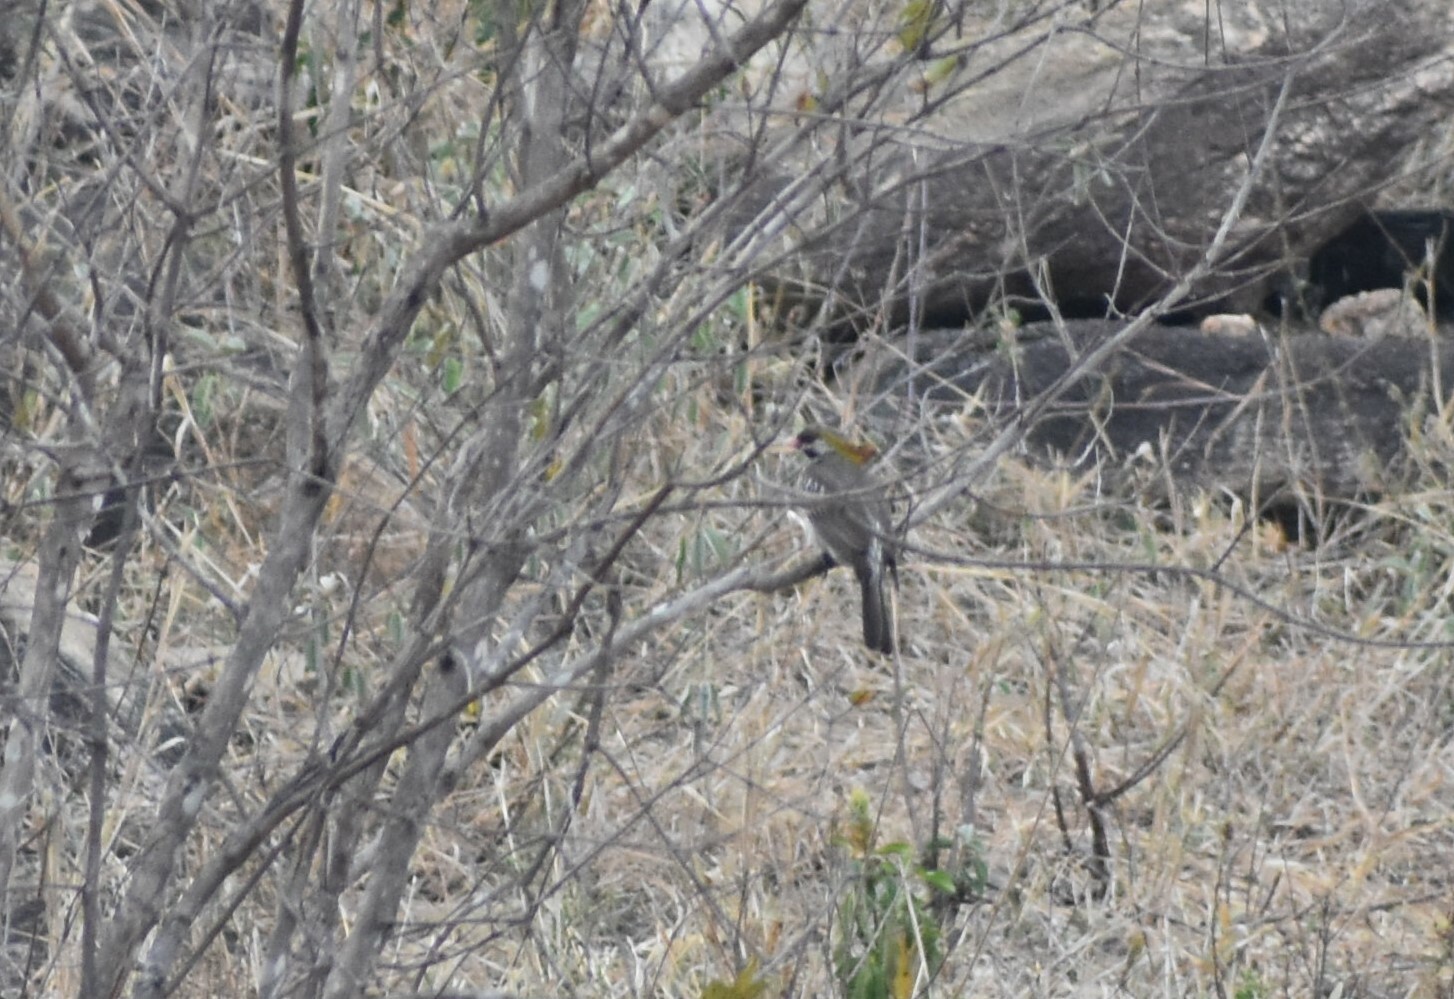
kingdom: Animalia
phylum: Chordata
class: Aves
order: Piciformes
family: Indicatoridae
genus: Indicator
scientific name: Indicator indicator
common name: Greater honeyguide
